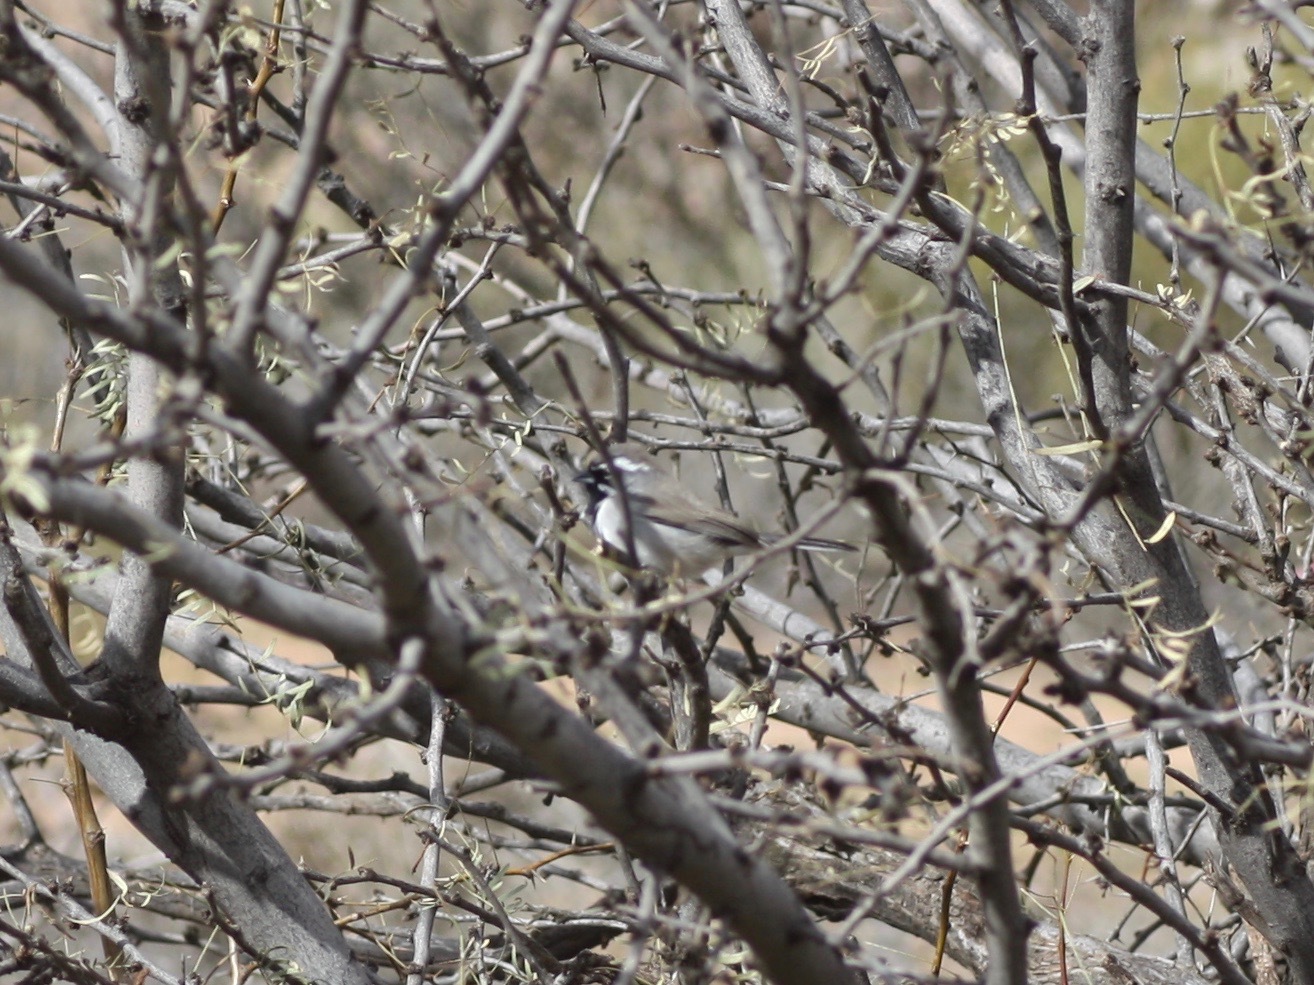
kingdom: Animalia
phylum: Chordata
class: Aves
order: Passeriformes
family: Passerellidae
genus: Amphispiza
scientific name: Amphispiza bilineata
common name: Black-throated sparrow
